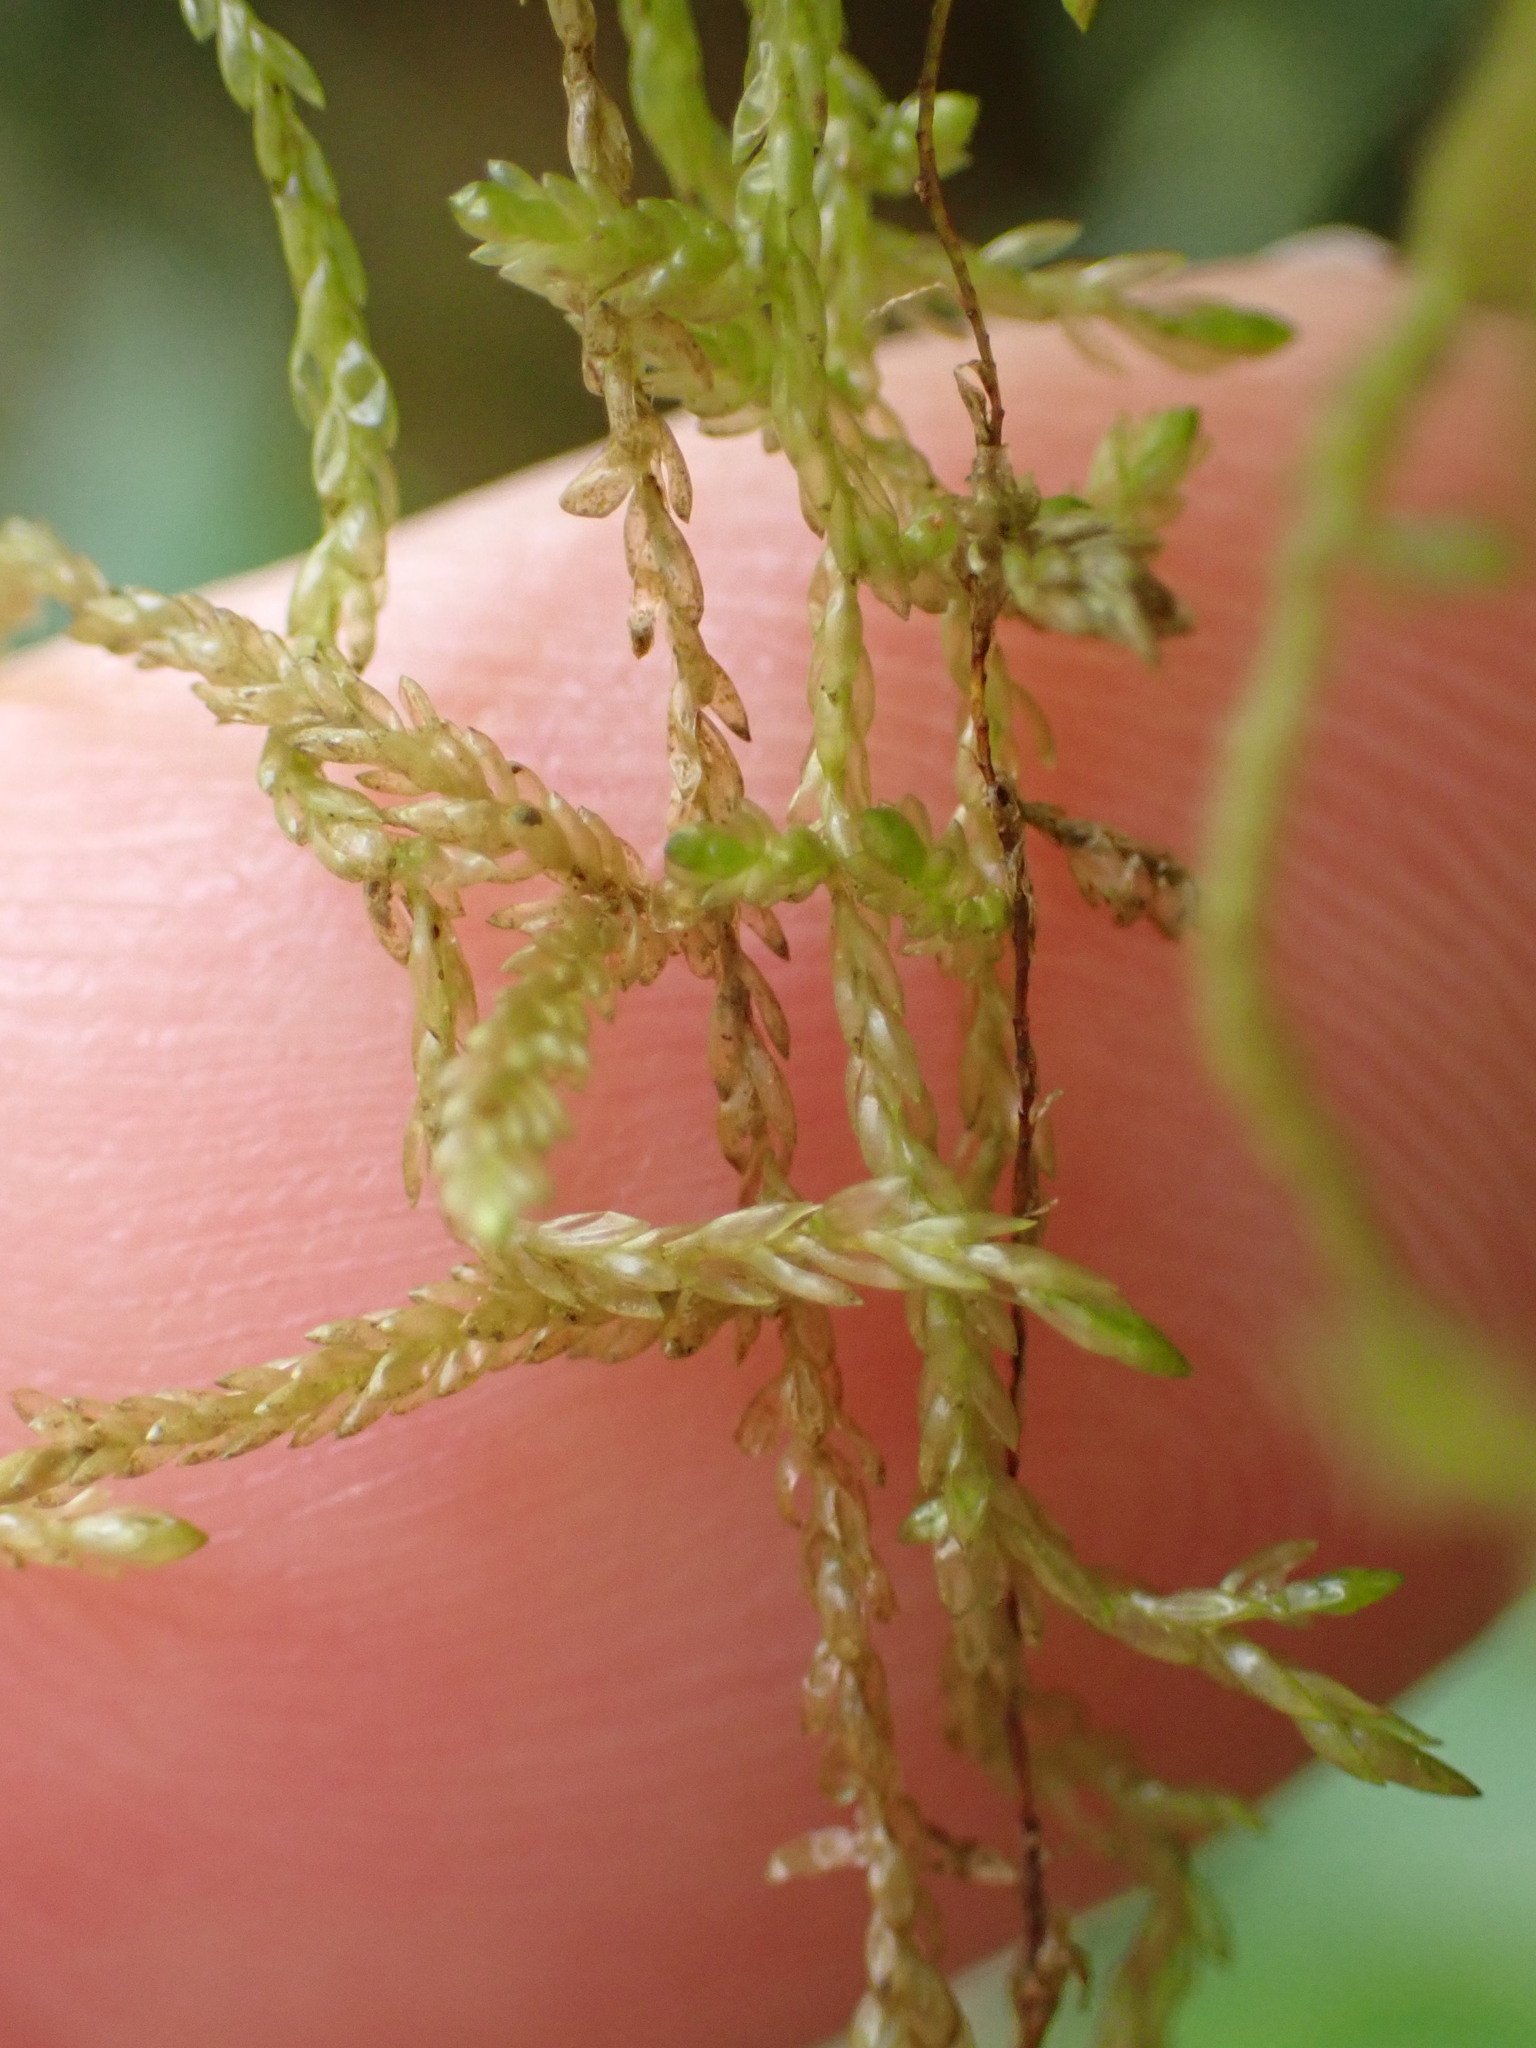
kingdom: Plantae
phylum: Bryophyta
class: Bryopsida
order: Hypnales
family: Lembophyllaceae
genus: Weymouthia
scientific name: Weymouthia mollis
